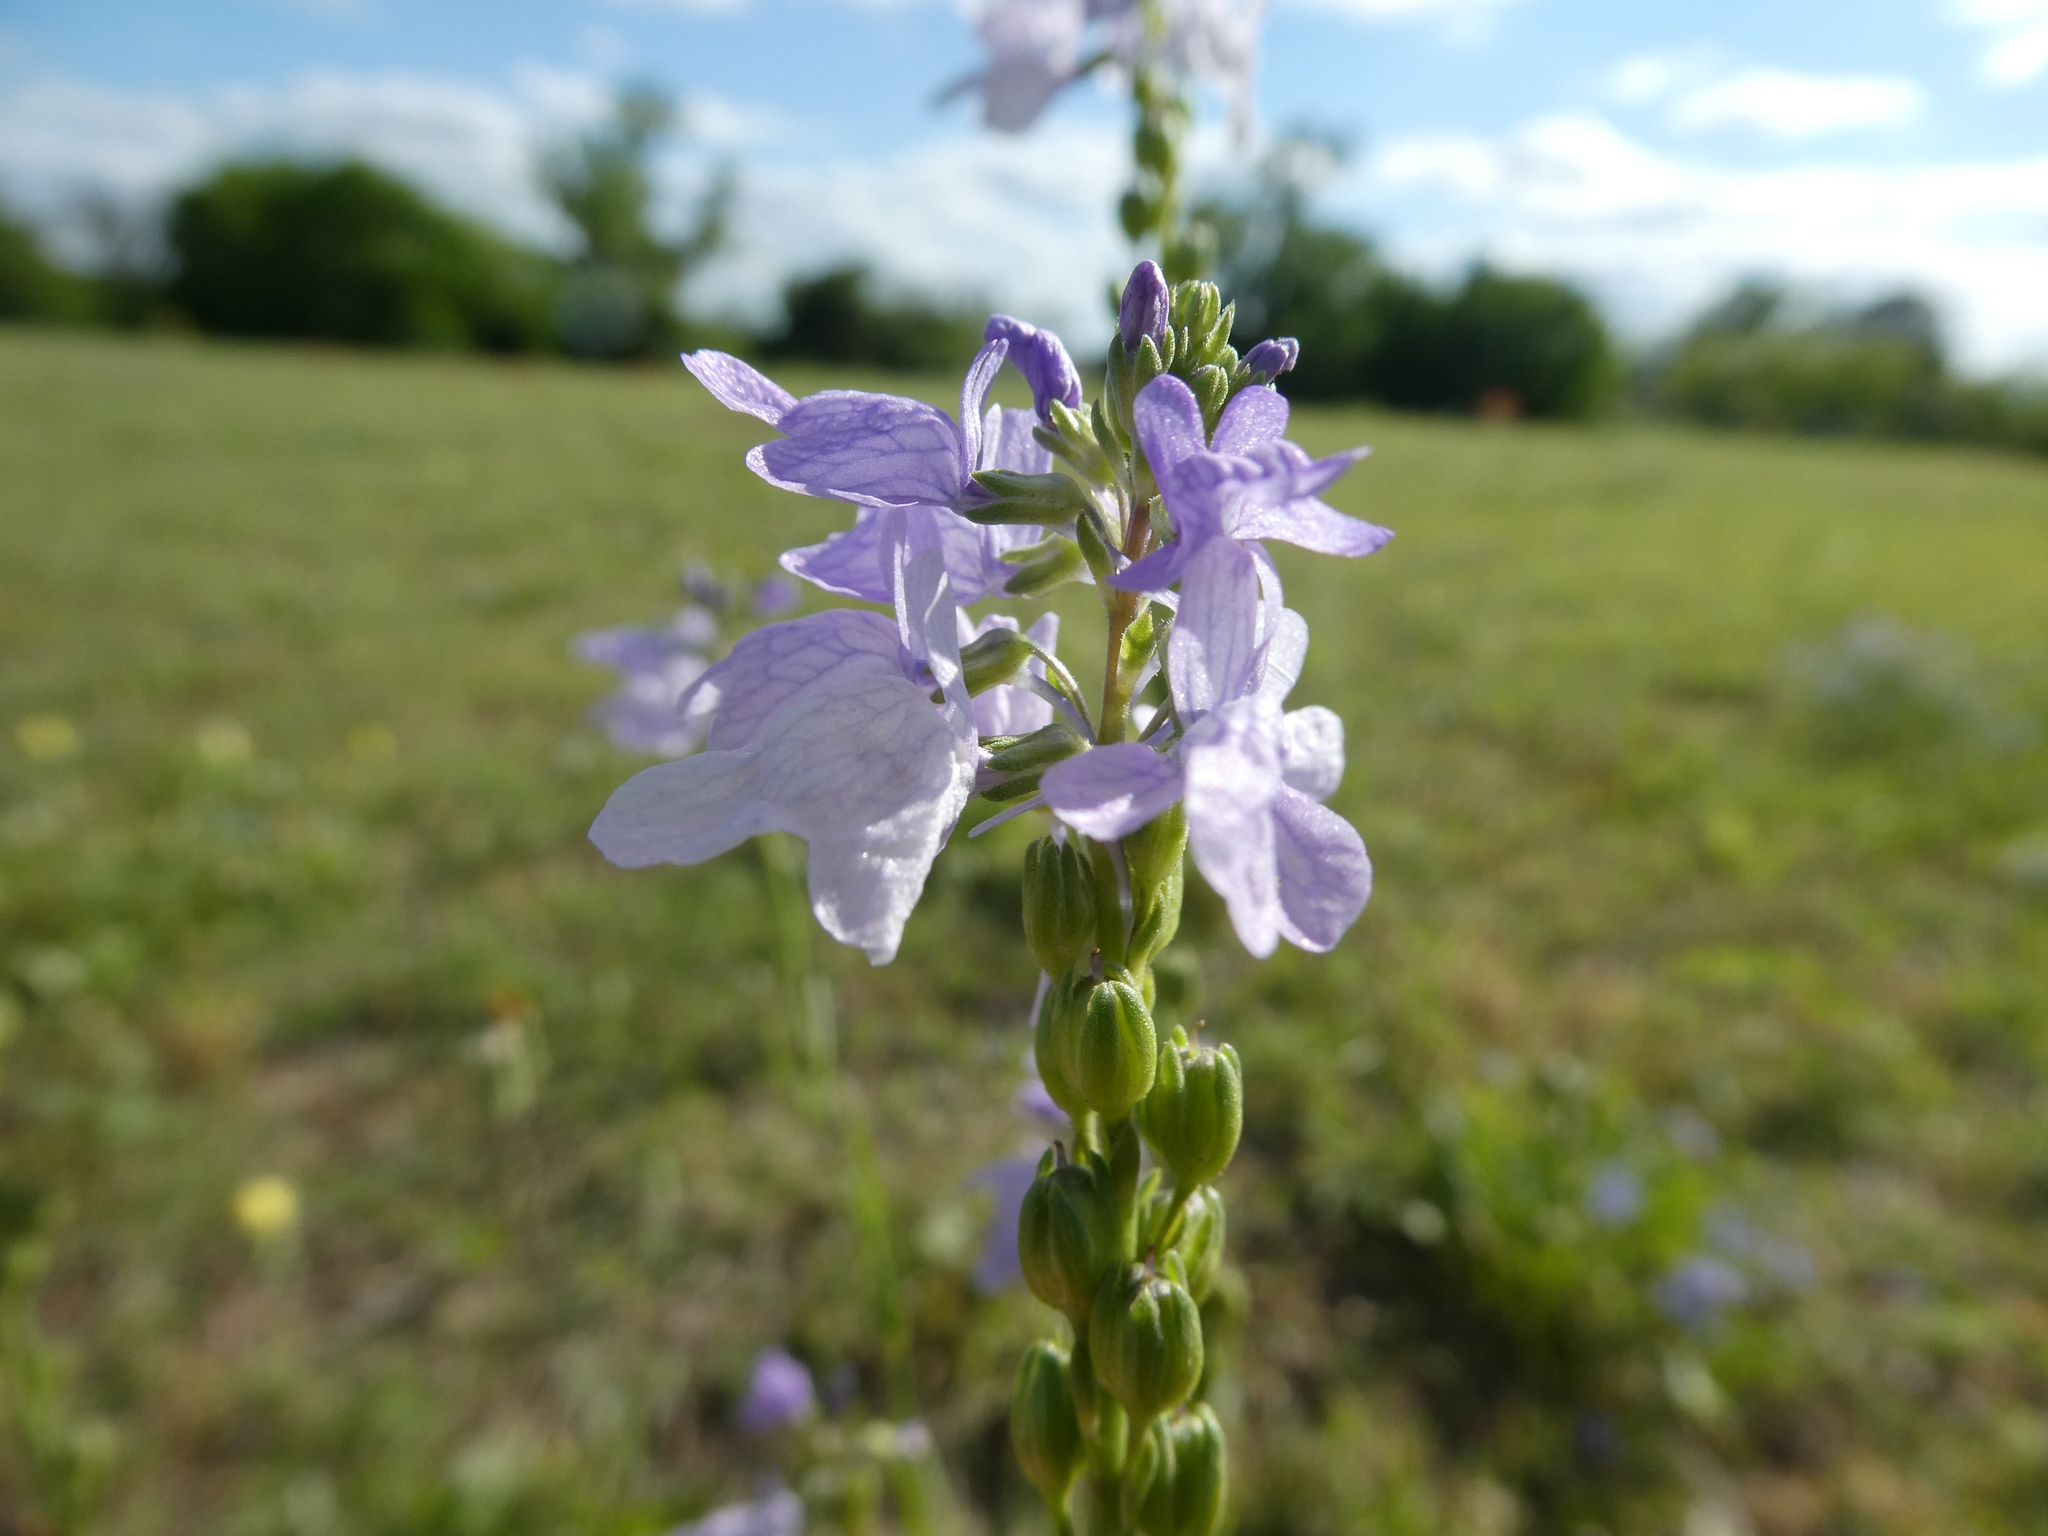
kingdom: Plantae
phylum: Tracheophyta
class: Magnoliopsida
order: Lamiales
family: Plantaginaceae
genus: Nuttallanthus
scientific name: Nuttallanthus texanus
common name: Texas toadflax
